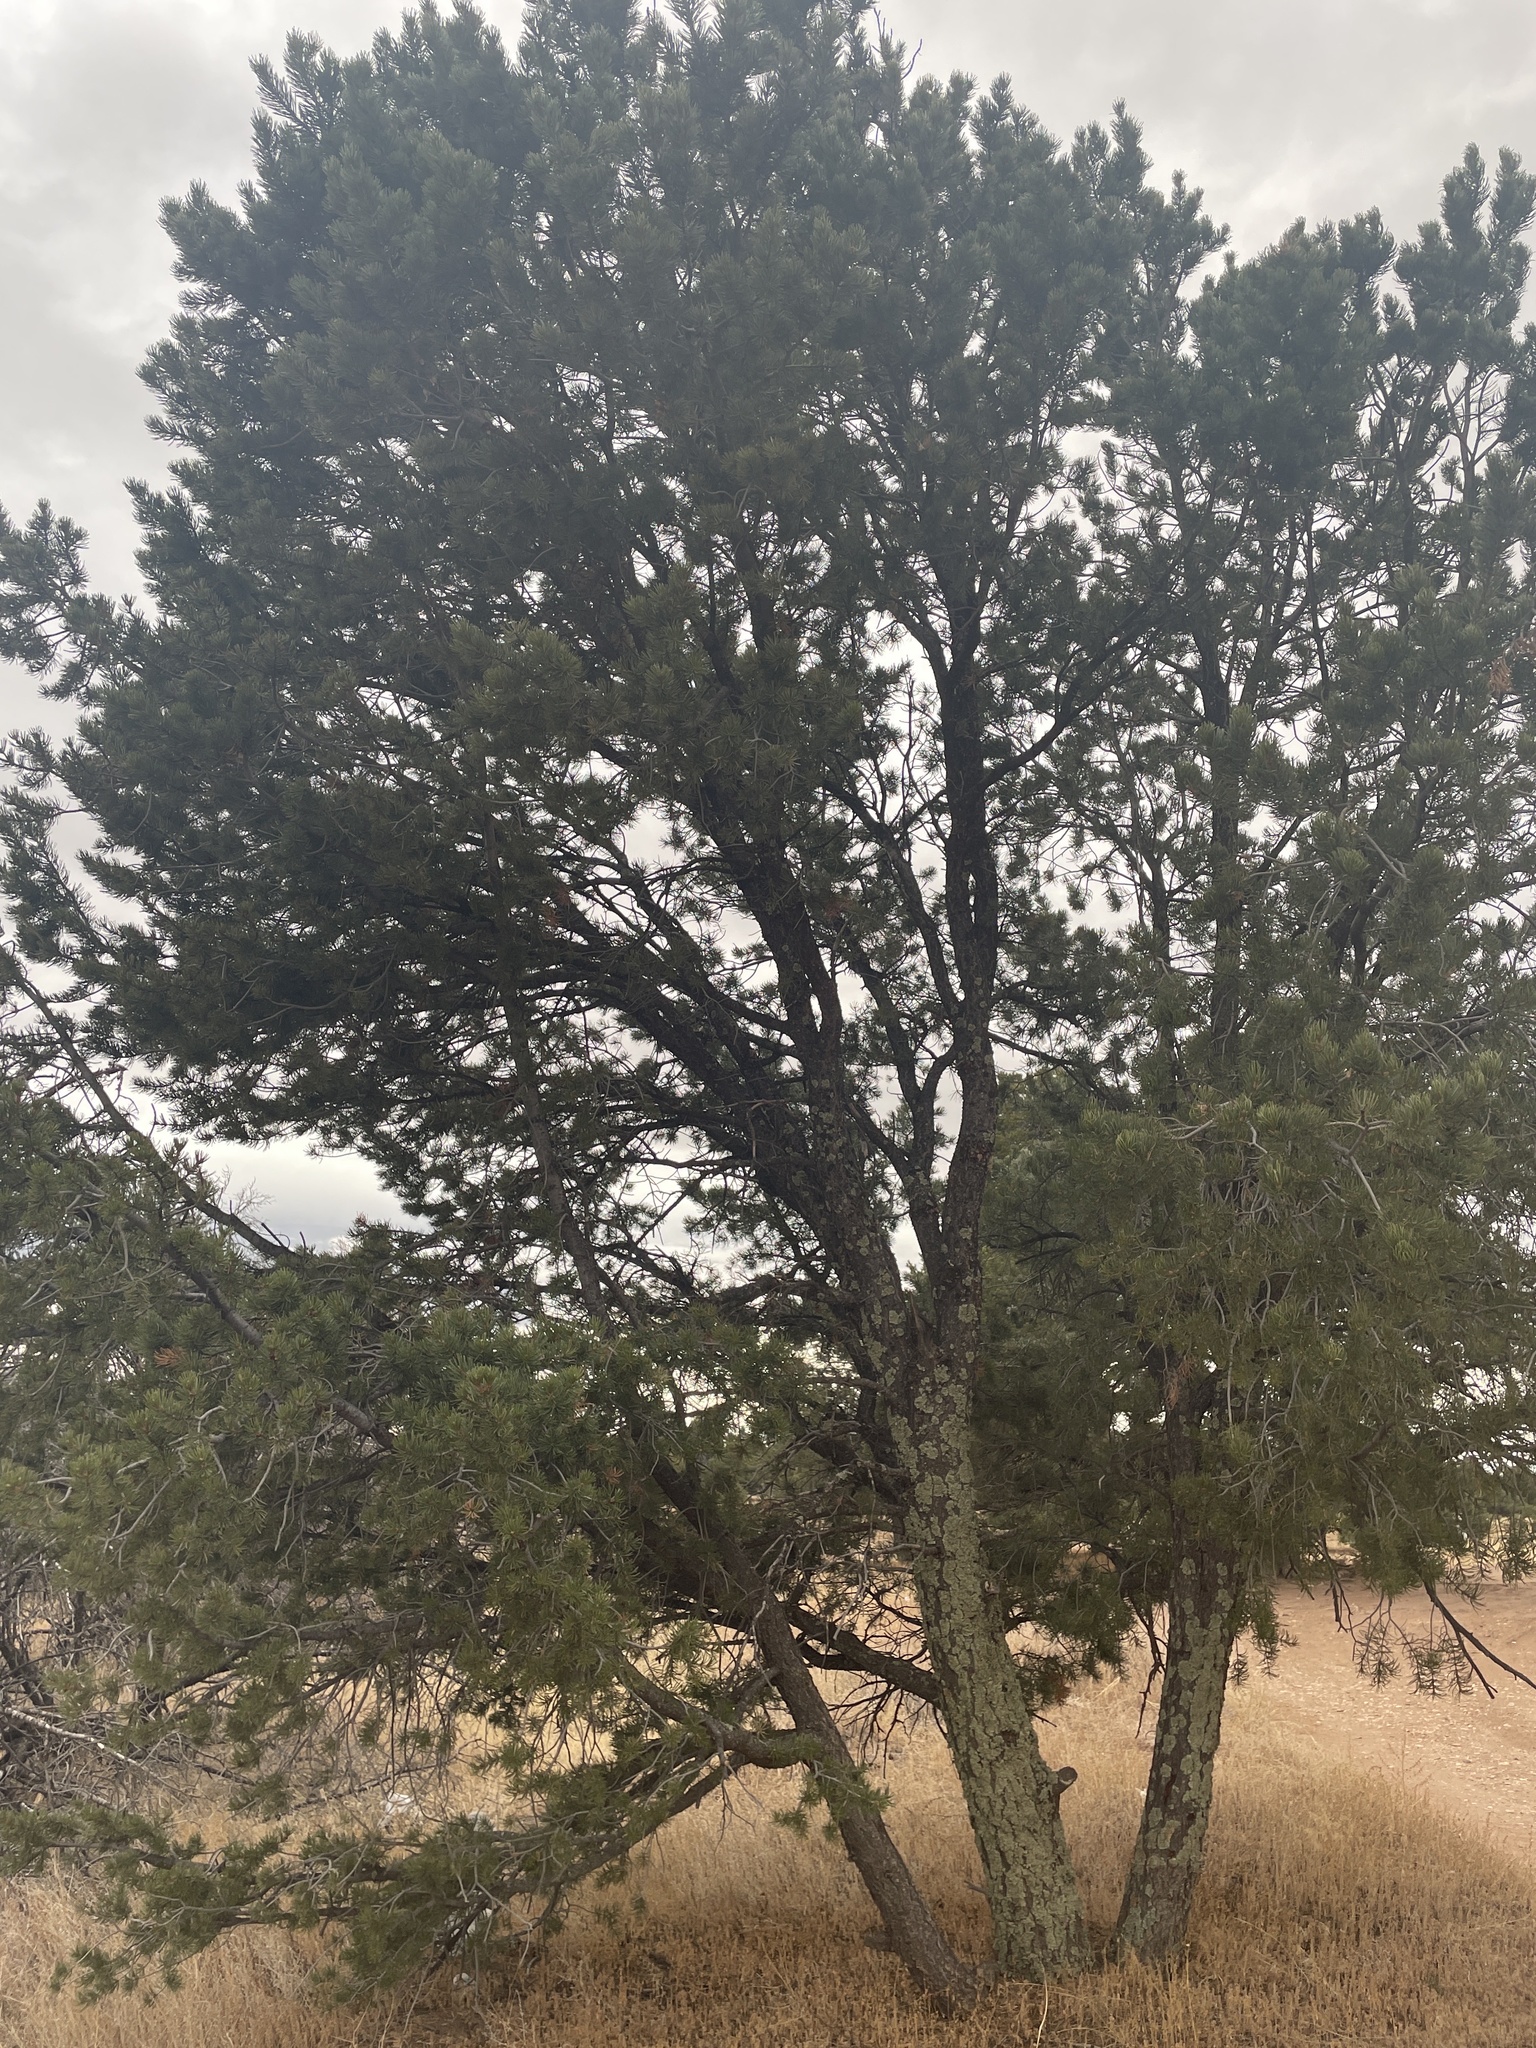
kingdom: Plantae
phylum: Tracheophyta
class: Pinopsida
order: Pinales
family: Pinaceae
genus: Pinus
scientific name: Pinus edulis
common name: Colorado pinyon
